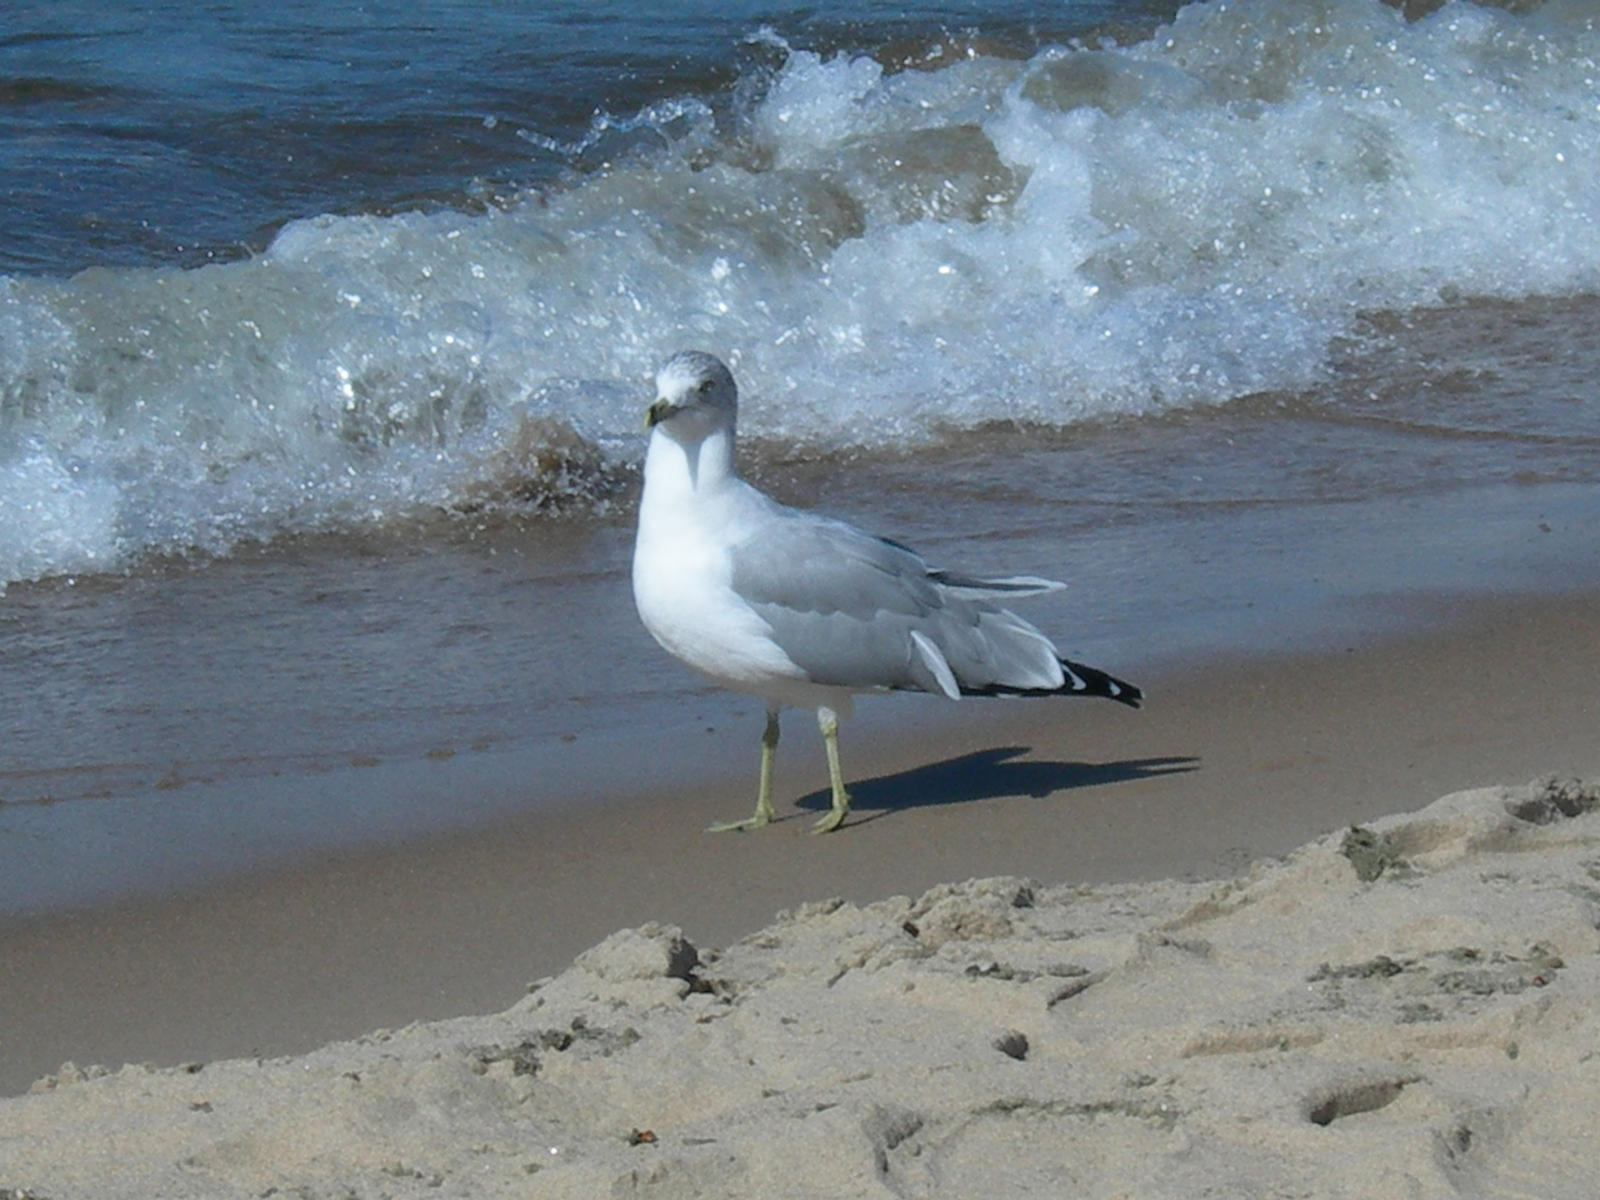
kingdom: Animalia
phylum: Chordata
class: Aves
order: Charadriiformes
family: Laridae
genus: Larus
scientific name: Larus delawarensis
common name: Ring-billed gull
